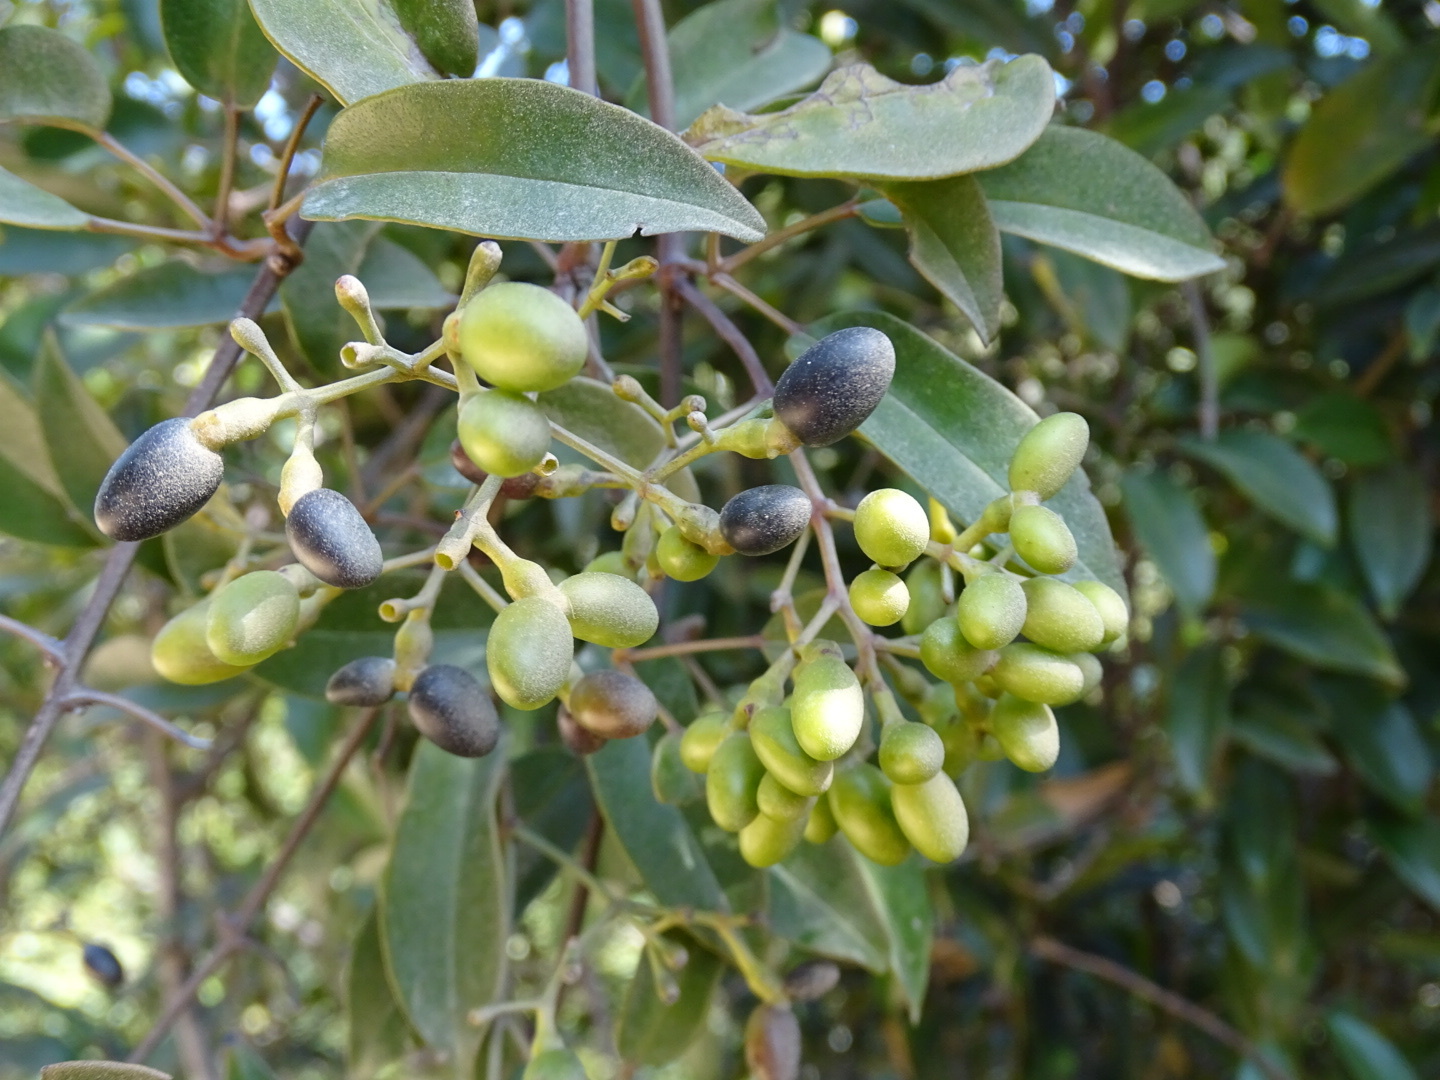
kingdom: Plantae
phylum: Tracheophyta
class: Magnoliopsida
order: Lamiales
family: Oleaceae
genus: Jasminum
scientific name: Jasminum lanceolaria
